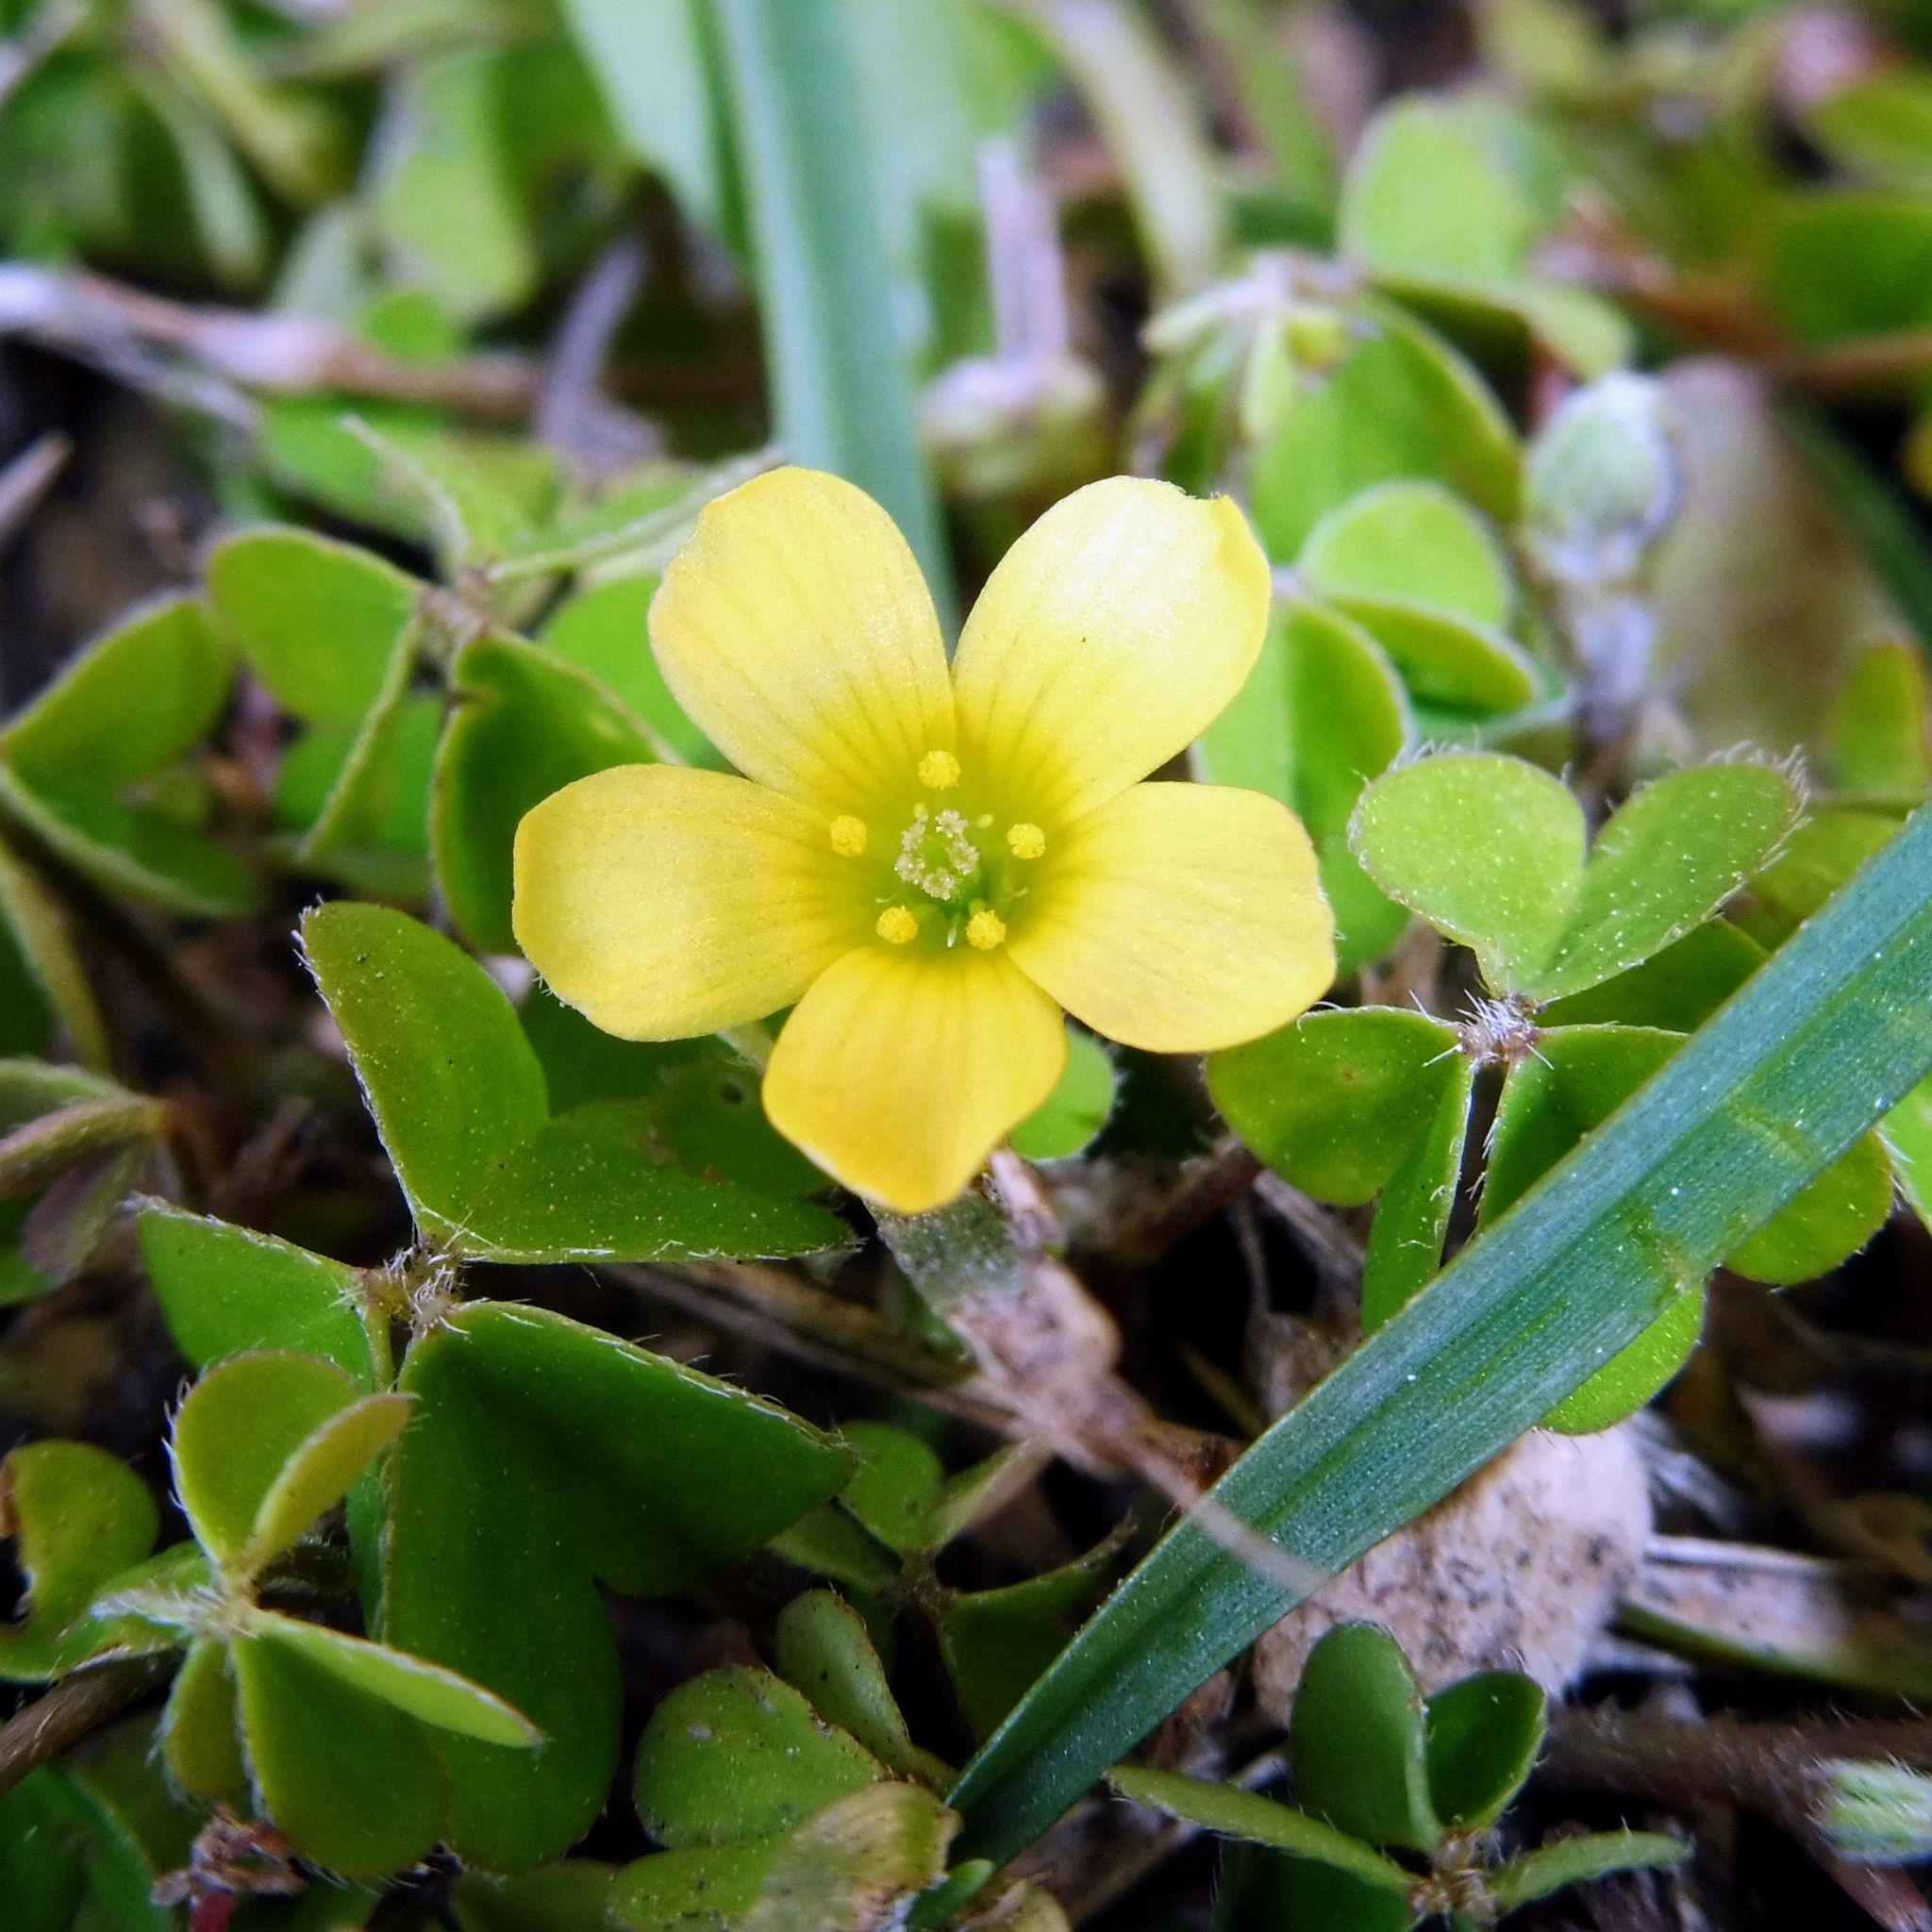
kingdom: Plantae
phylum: Tracheophyta
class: Magnoliopsida
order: Oxalidales
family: Oxalidaceae
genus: Oxalis
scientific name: Oxalis exilis
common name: Least yellow-sorrel
